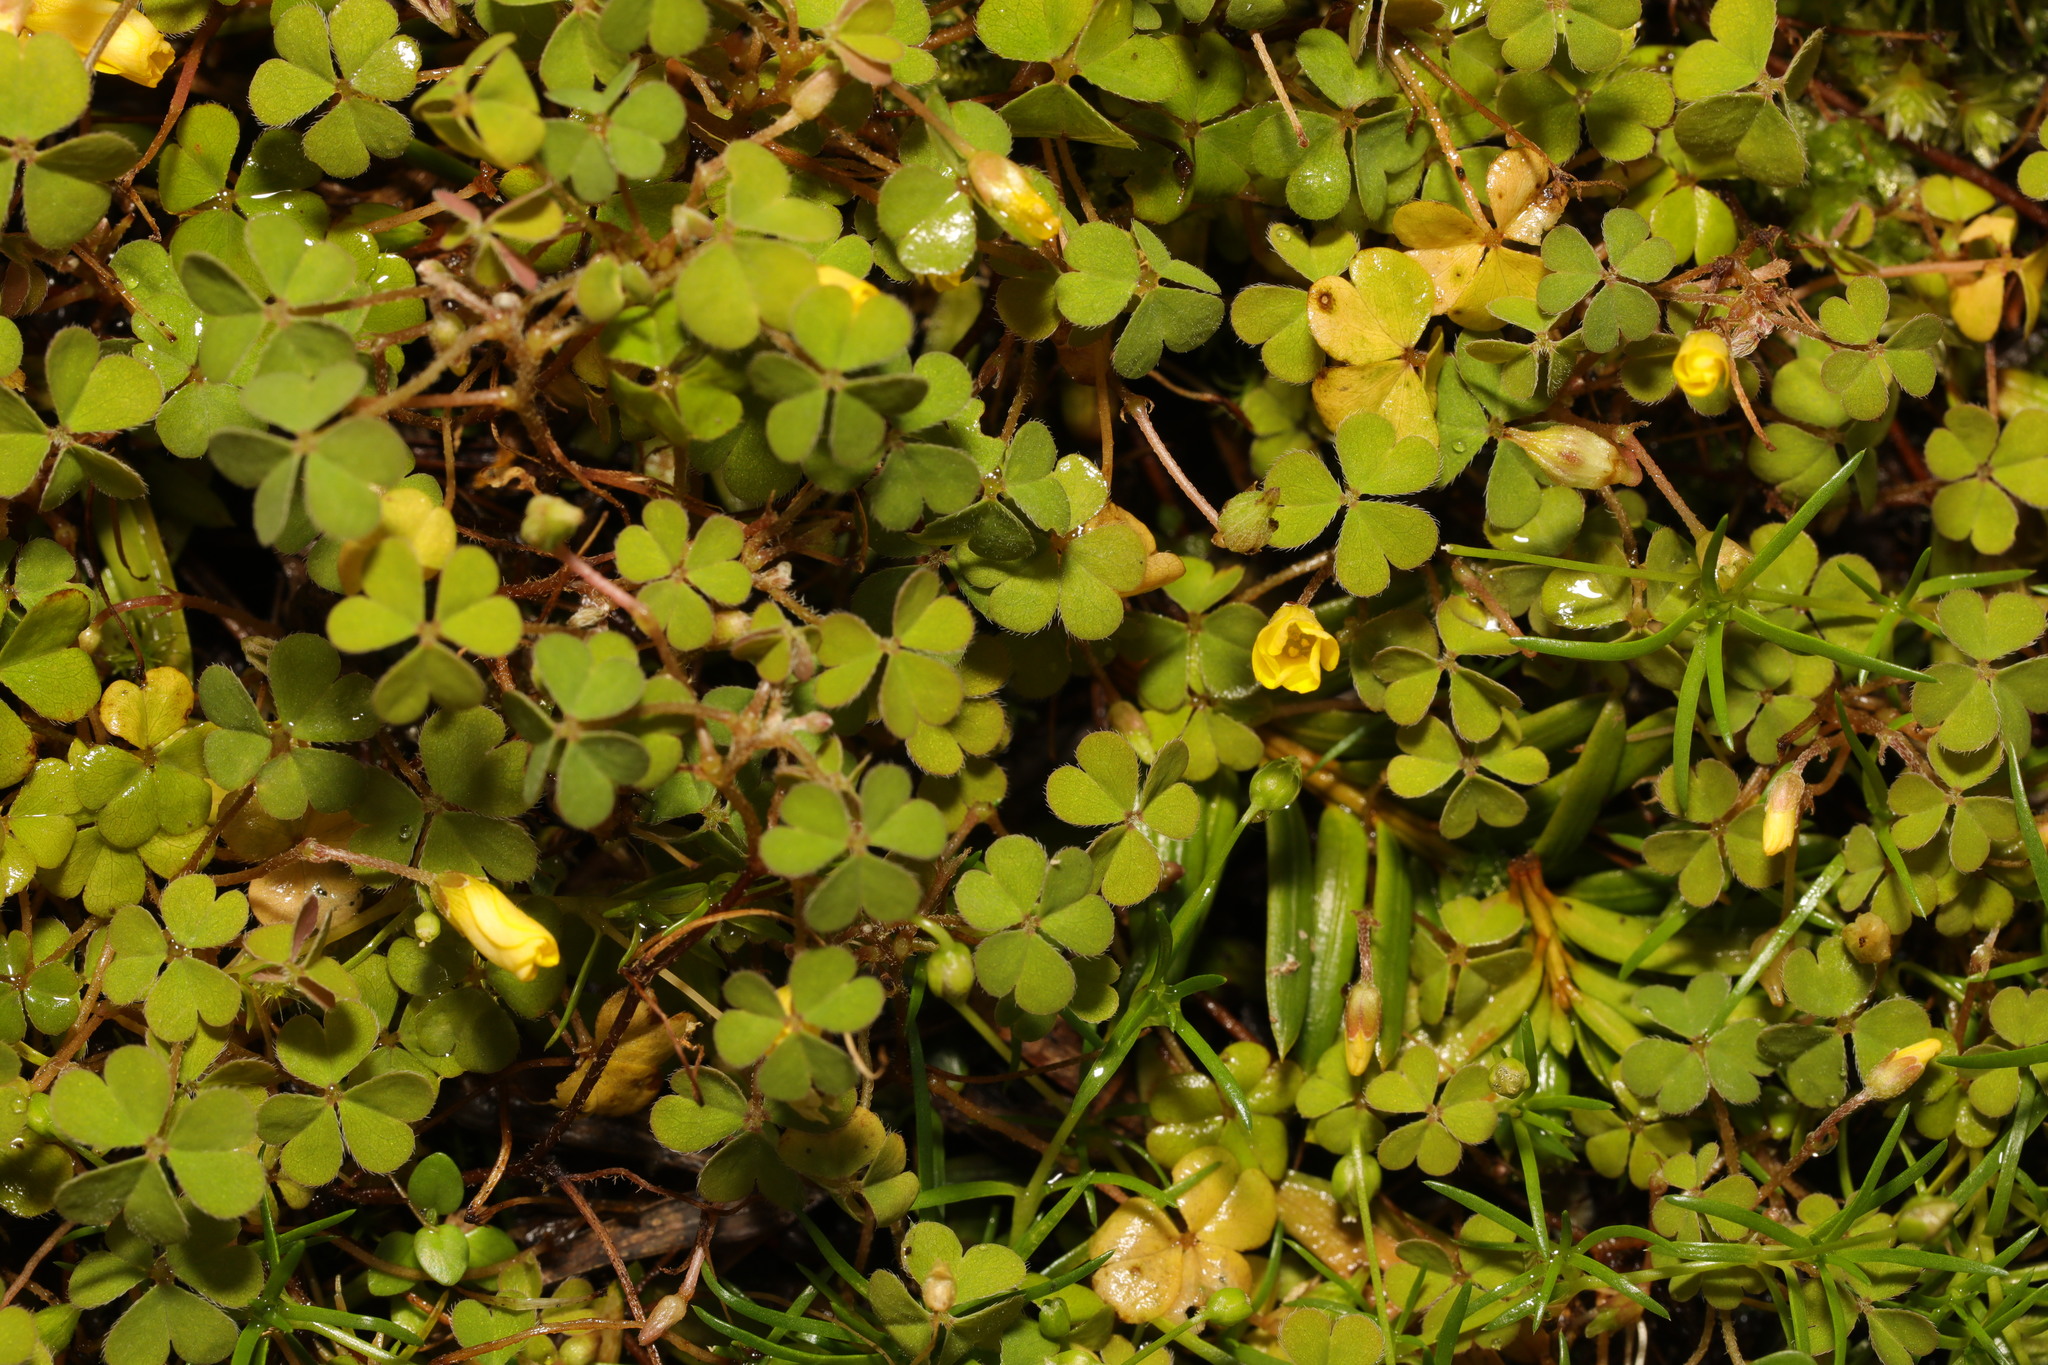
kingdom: Plantae
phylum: Tracheophyta
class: Magnoliopsida
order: Oxalidales
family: Oxalidaceae
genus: Oxalis
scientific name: Oxalis exilis
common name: Least yellow-sorrel
